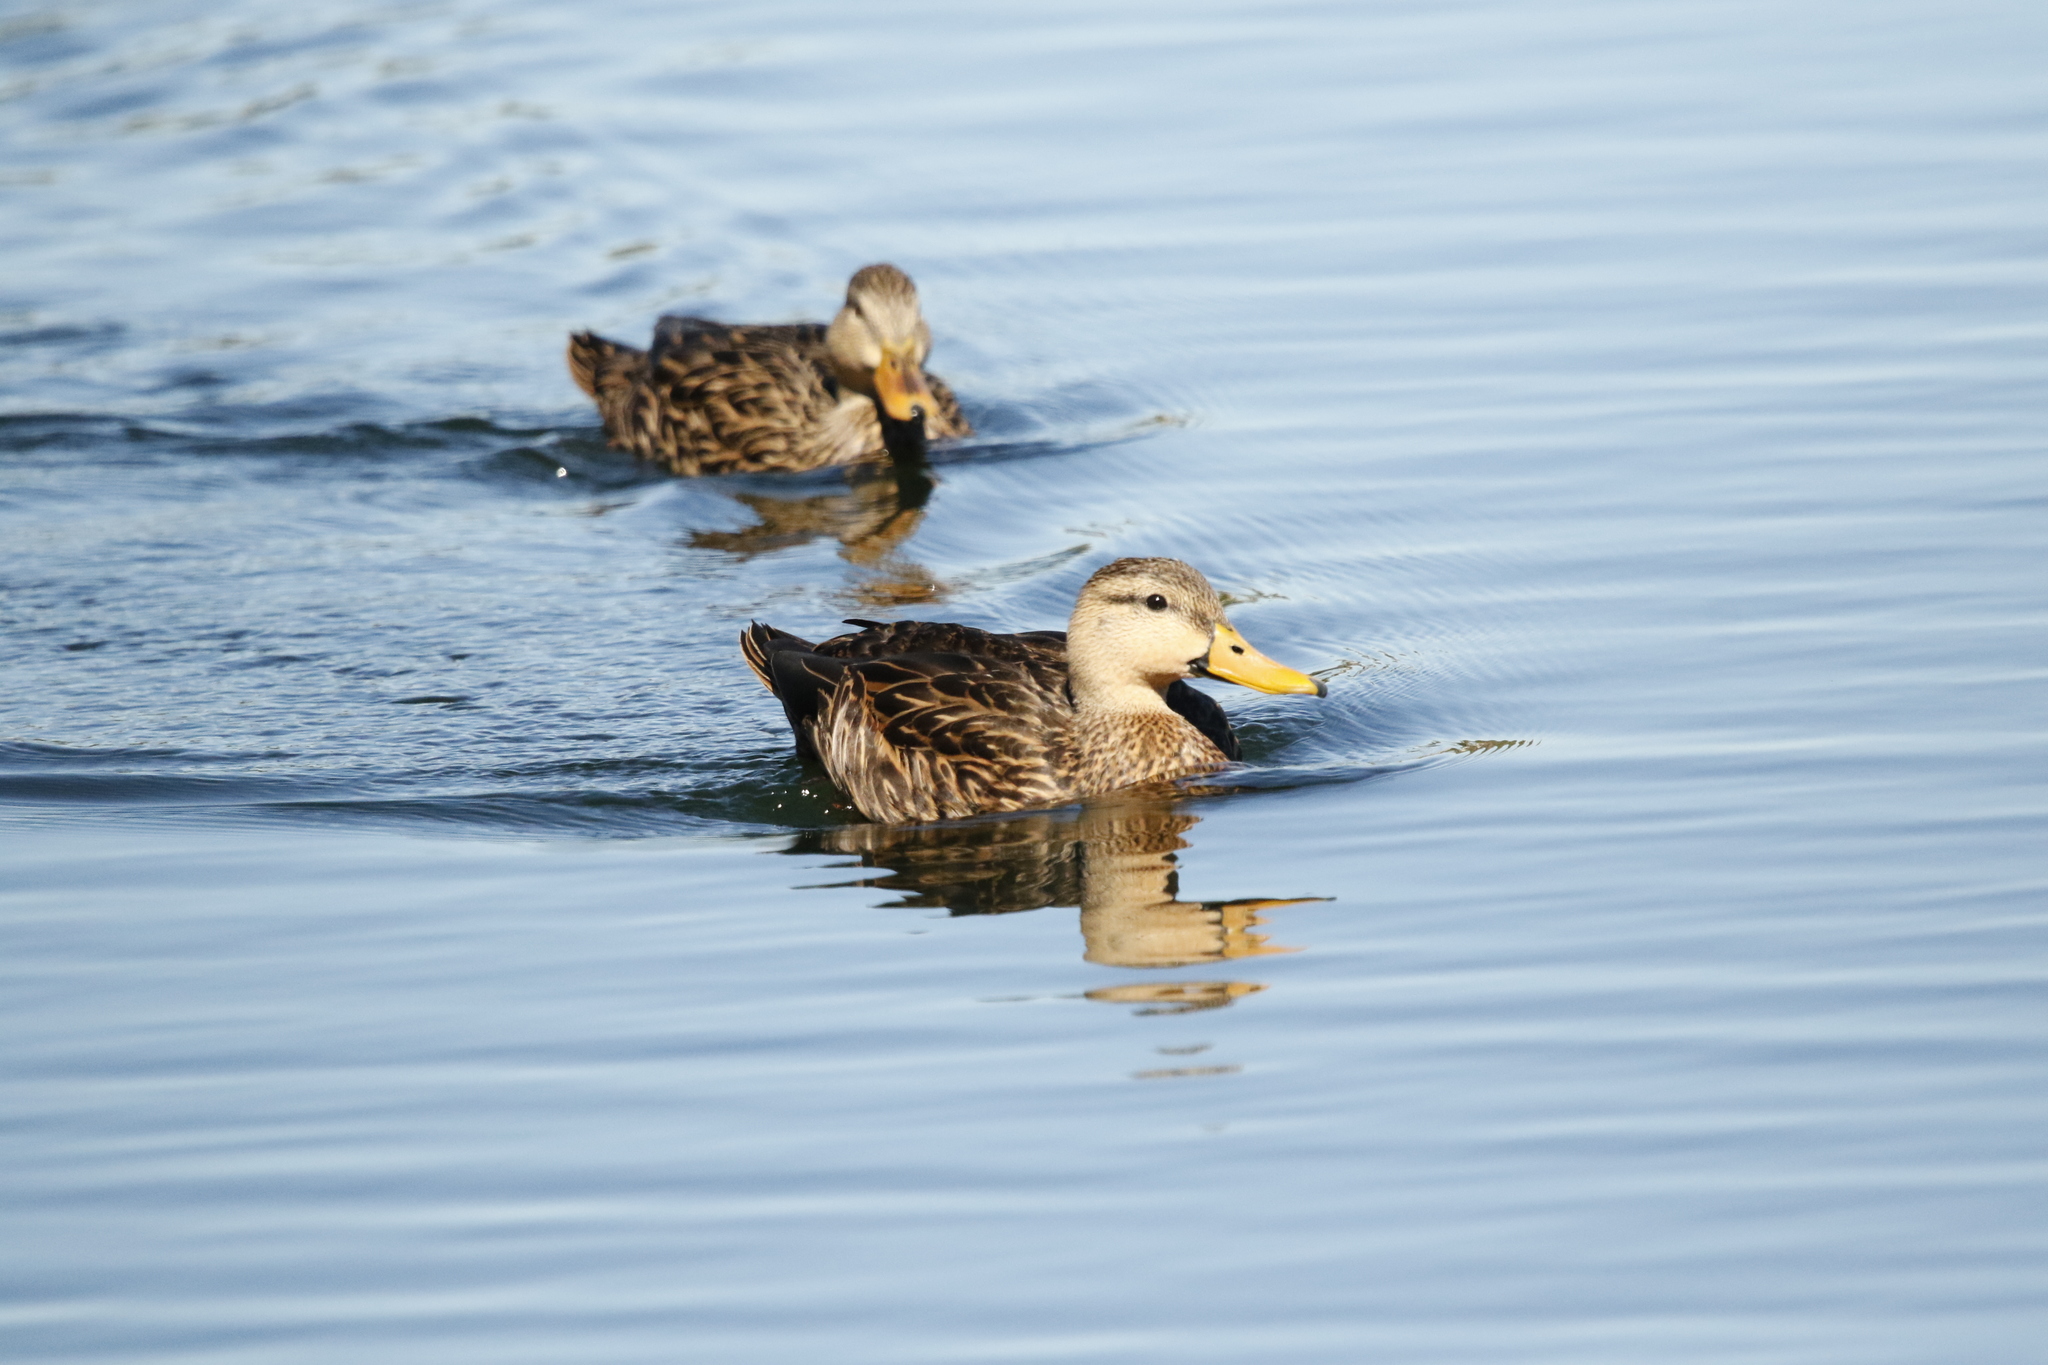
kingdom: Animalia
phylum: Chordata
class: Aves
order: Anseriformes
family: Anatidae
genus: Anas
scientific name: Anas fulvigula
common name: Mottled duck
